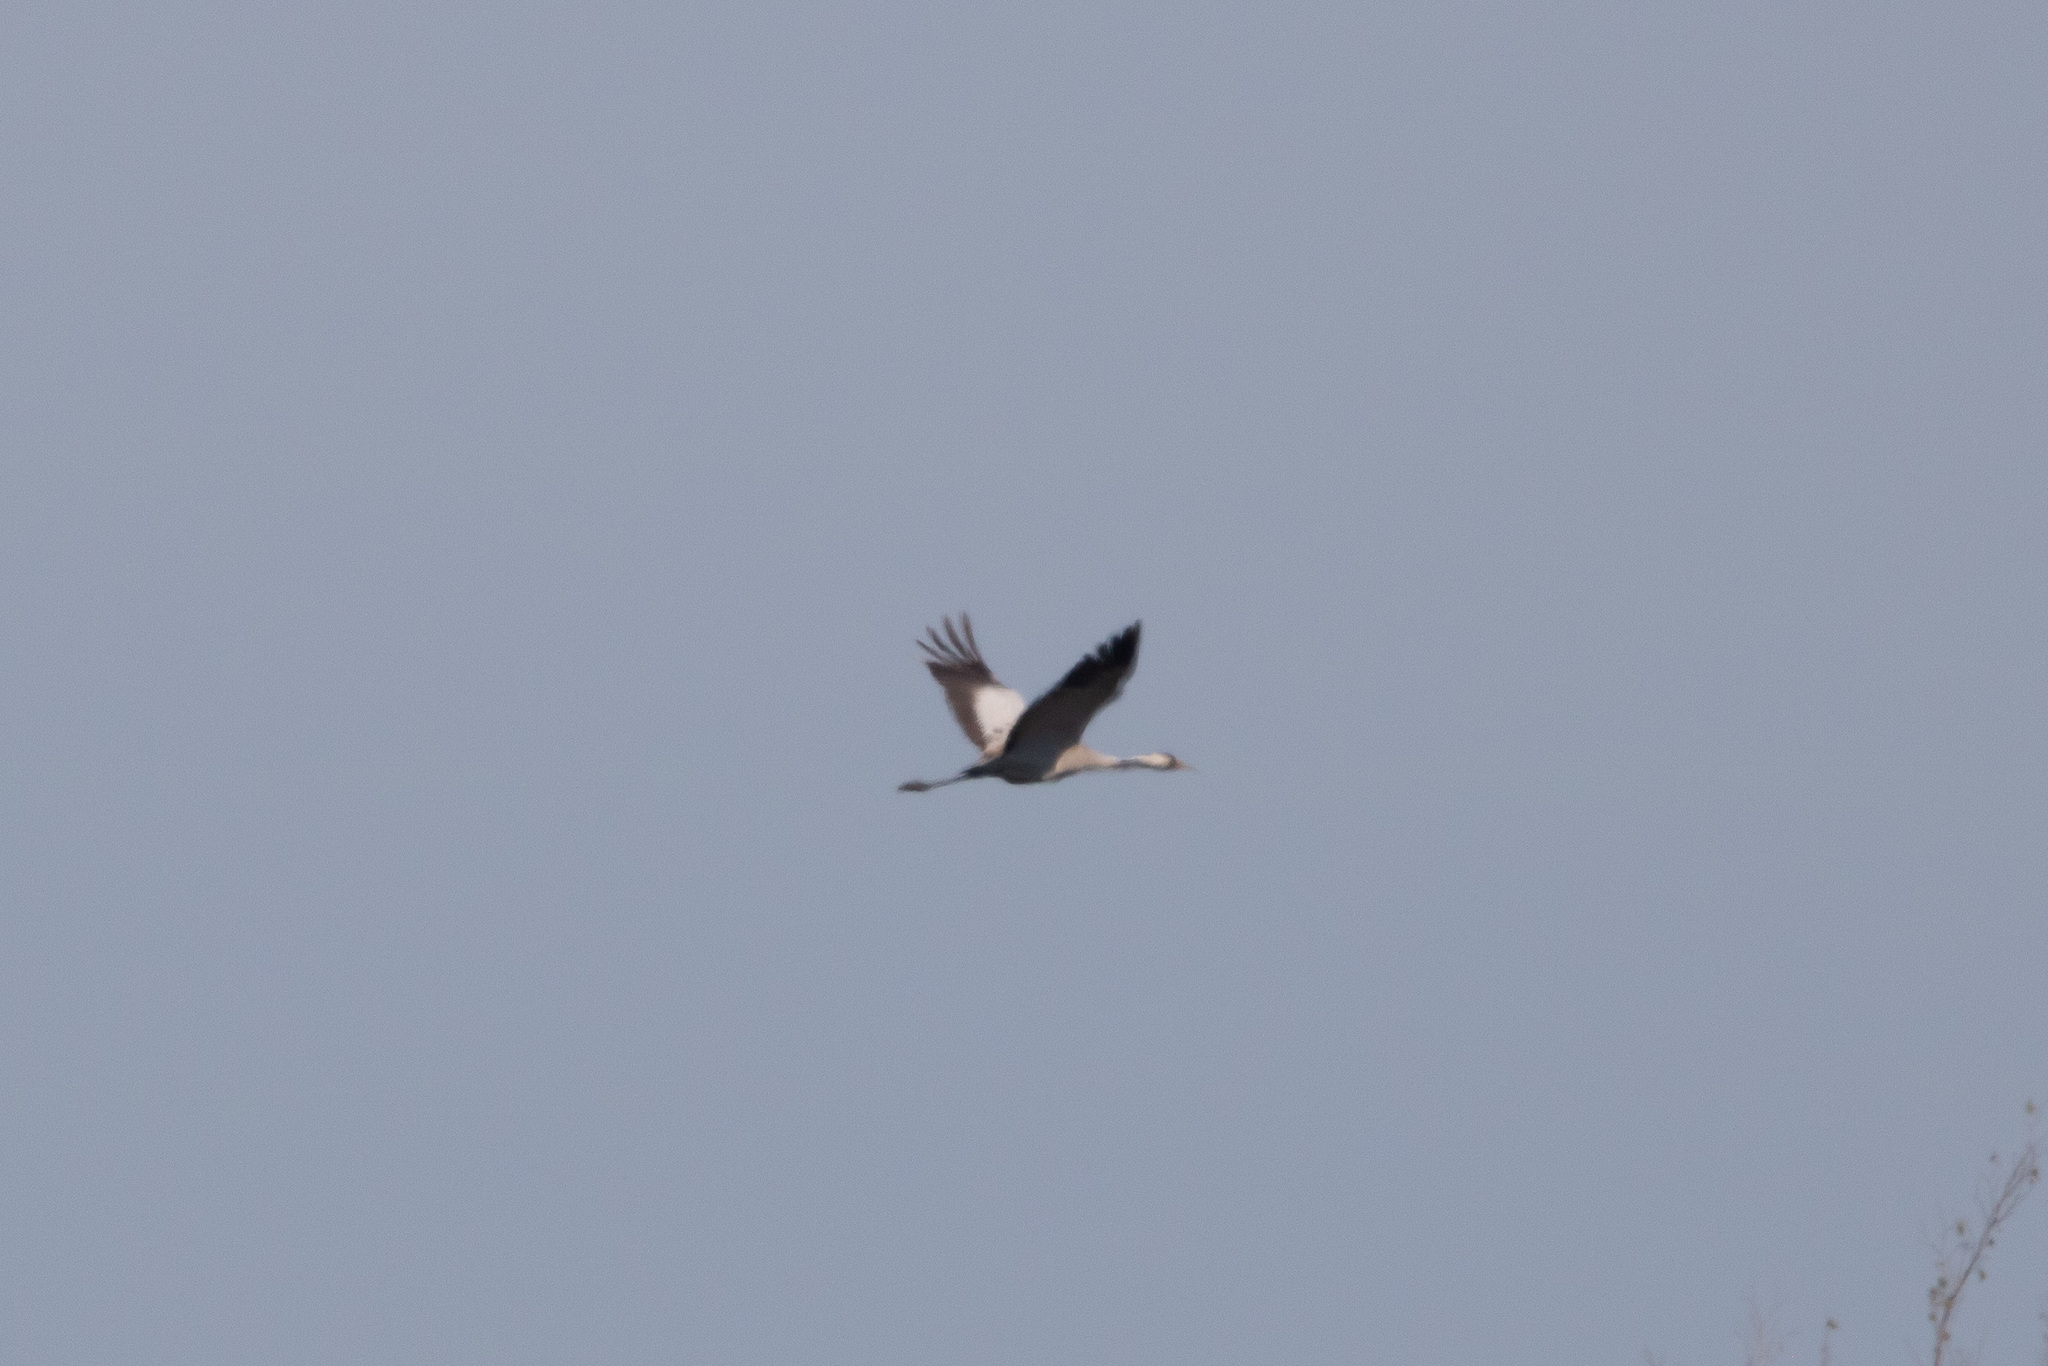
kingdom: Animalia
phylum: Chordata
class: Aves
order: Gruiformes
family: Gruidae
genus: Grus
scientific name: Grus grus
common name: Common crane
